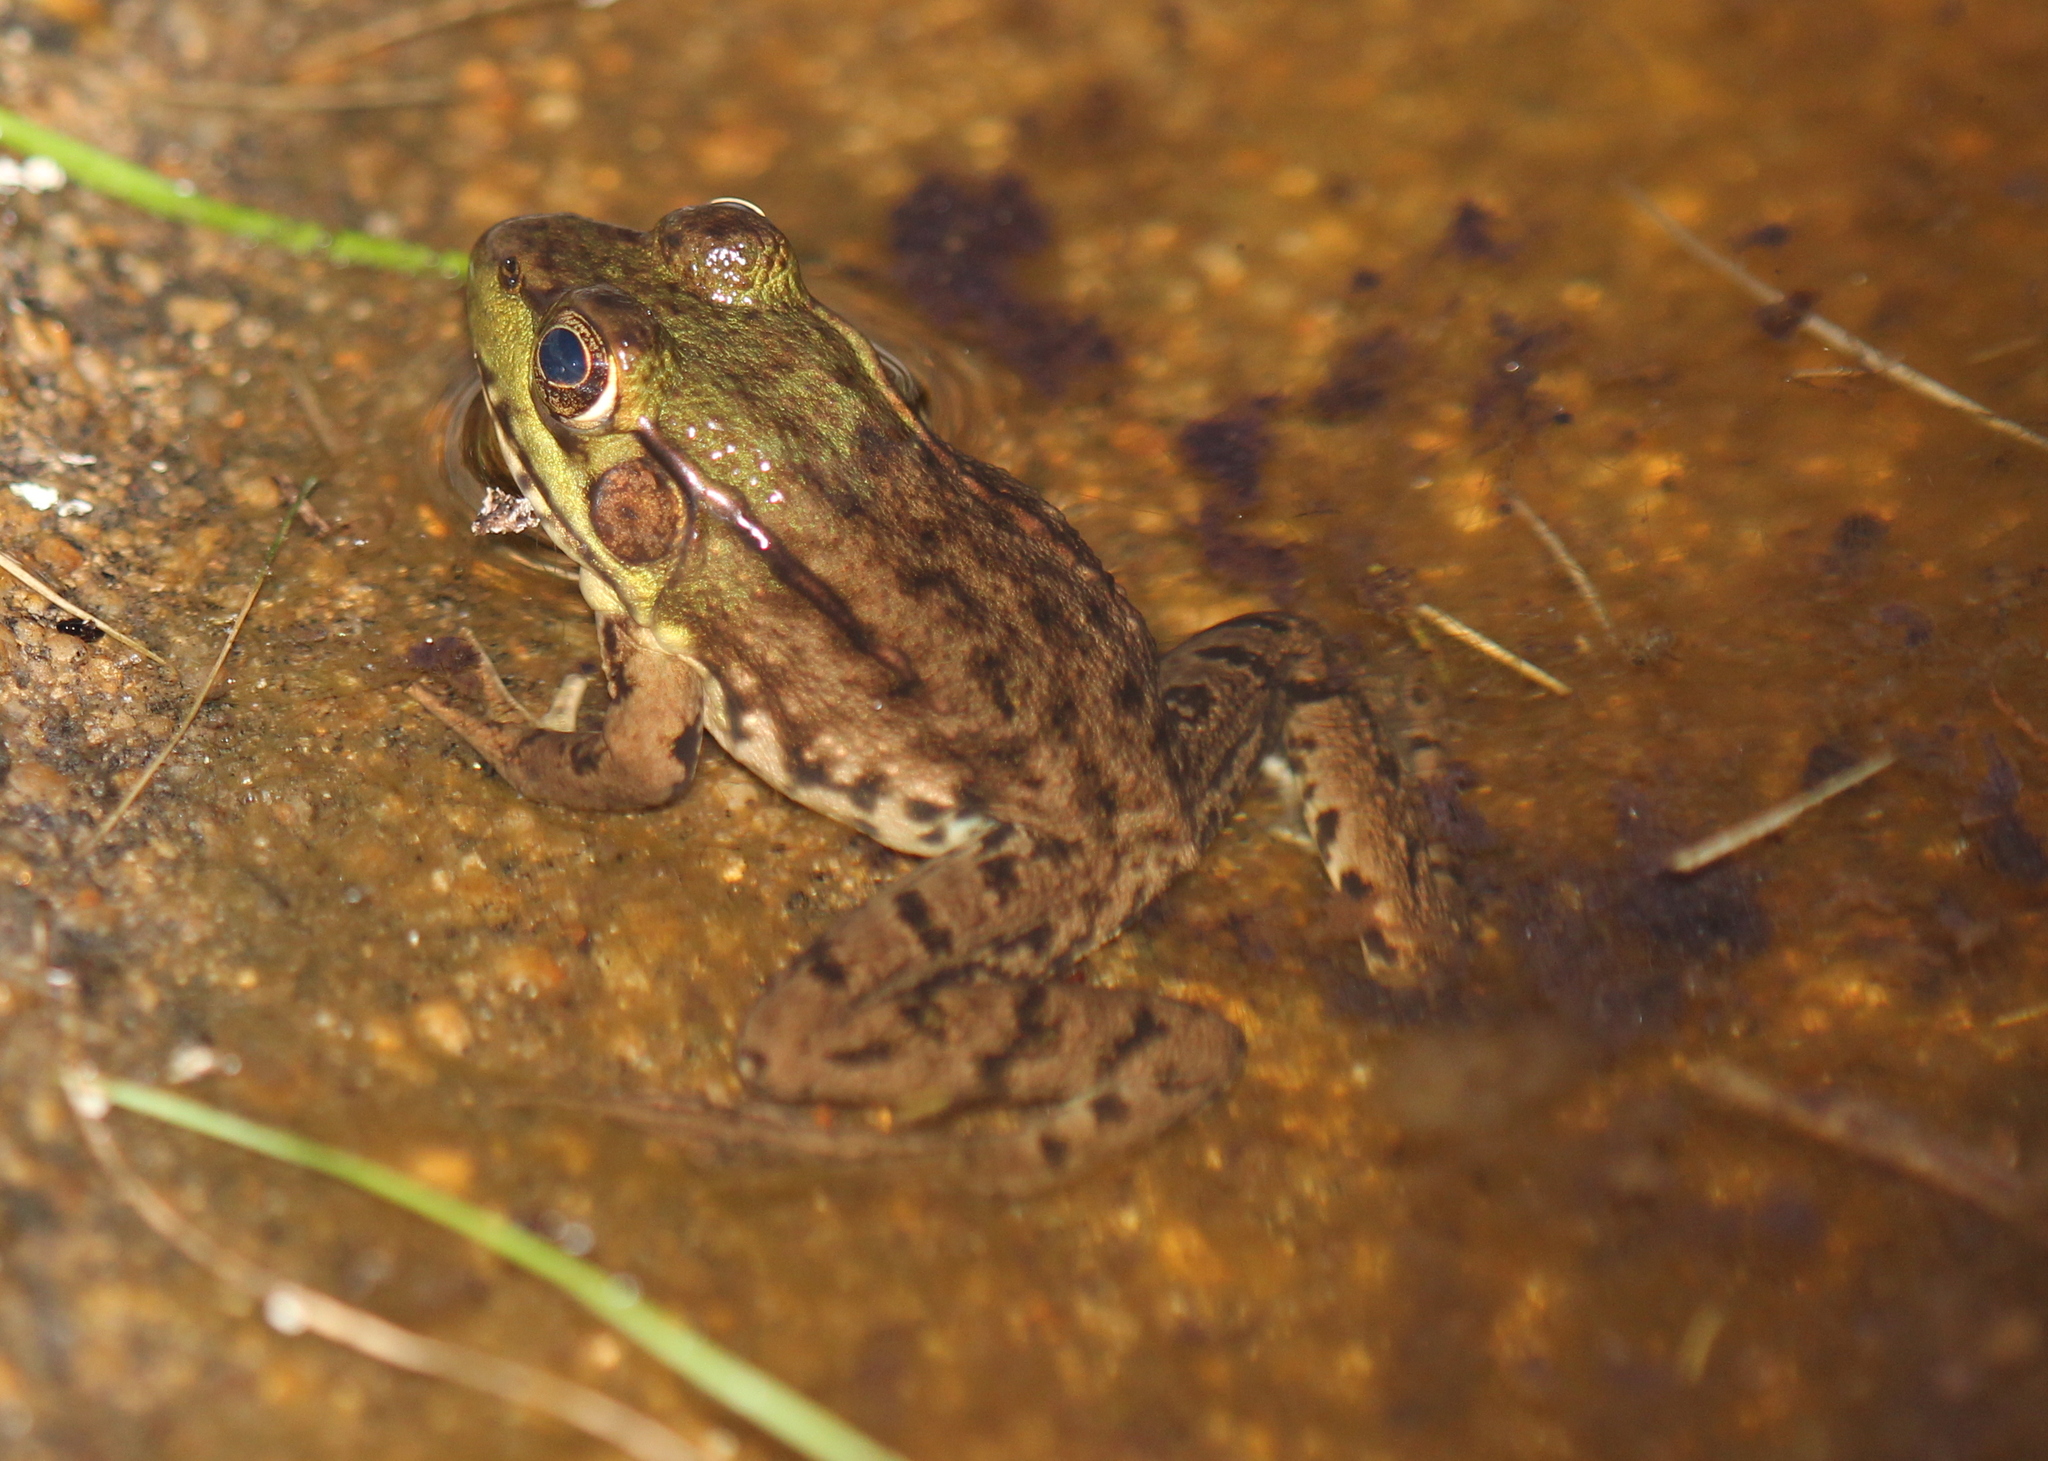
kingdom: Animalia
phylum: Chordata
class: Amphibia
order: Anura
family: Ranidae
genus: Lithobates
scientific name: Lithobates clamitans
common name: Green frog
